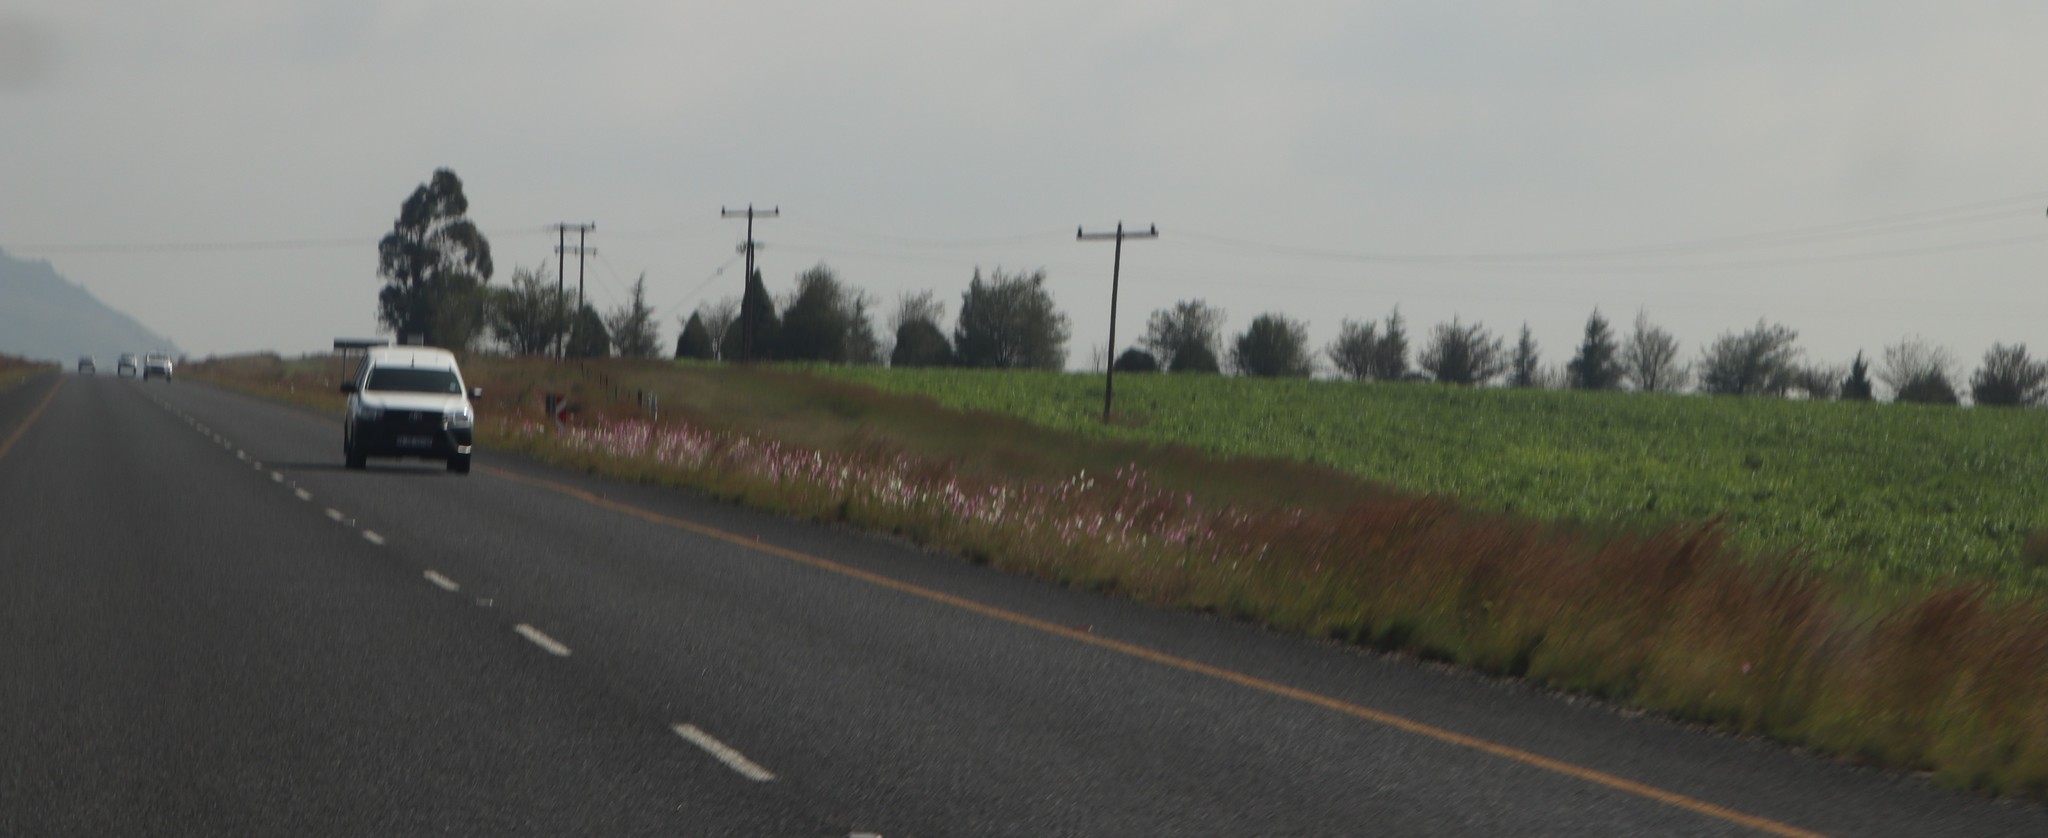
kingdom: Plantae
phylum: Tracheophyta
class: Magnoliopsida
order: Asterales
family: Asteraceae
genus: Cosmos
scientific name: Cosmos bipinnatus
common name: Garden cosmos
